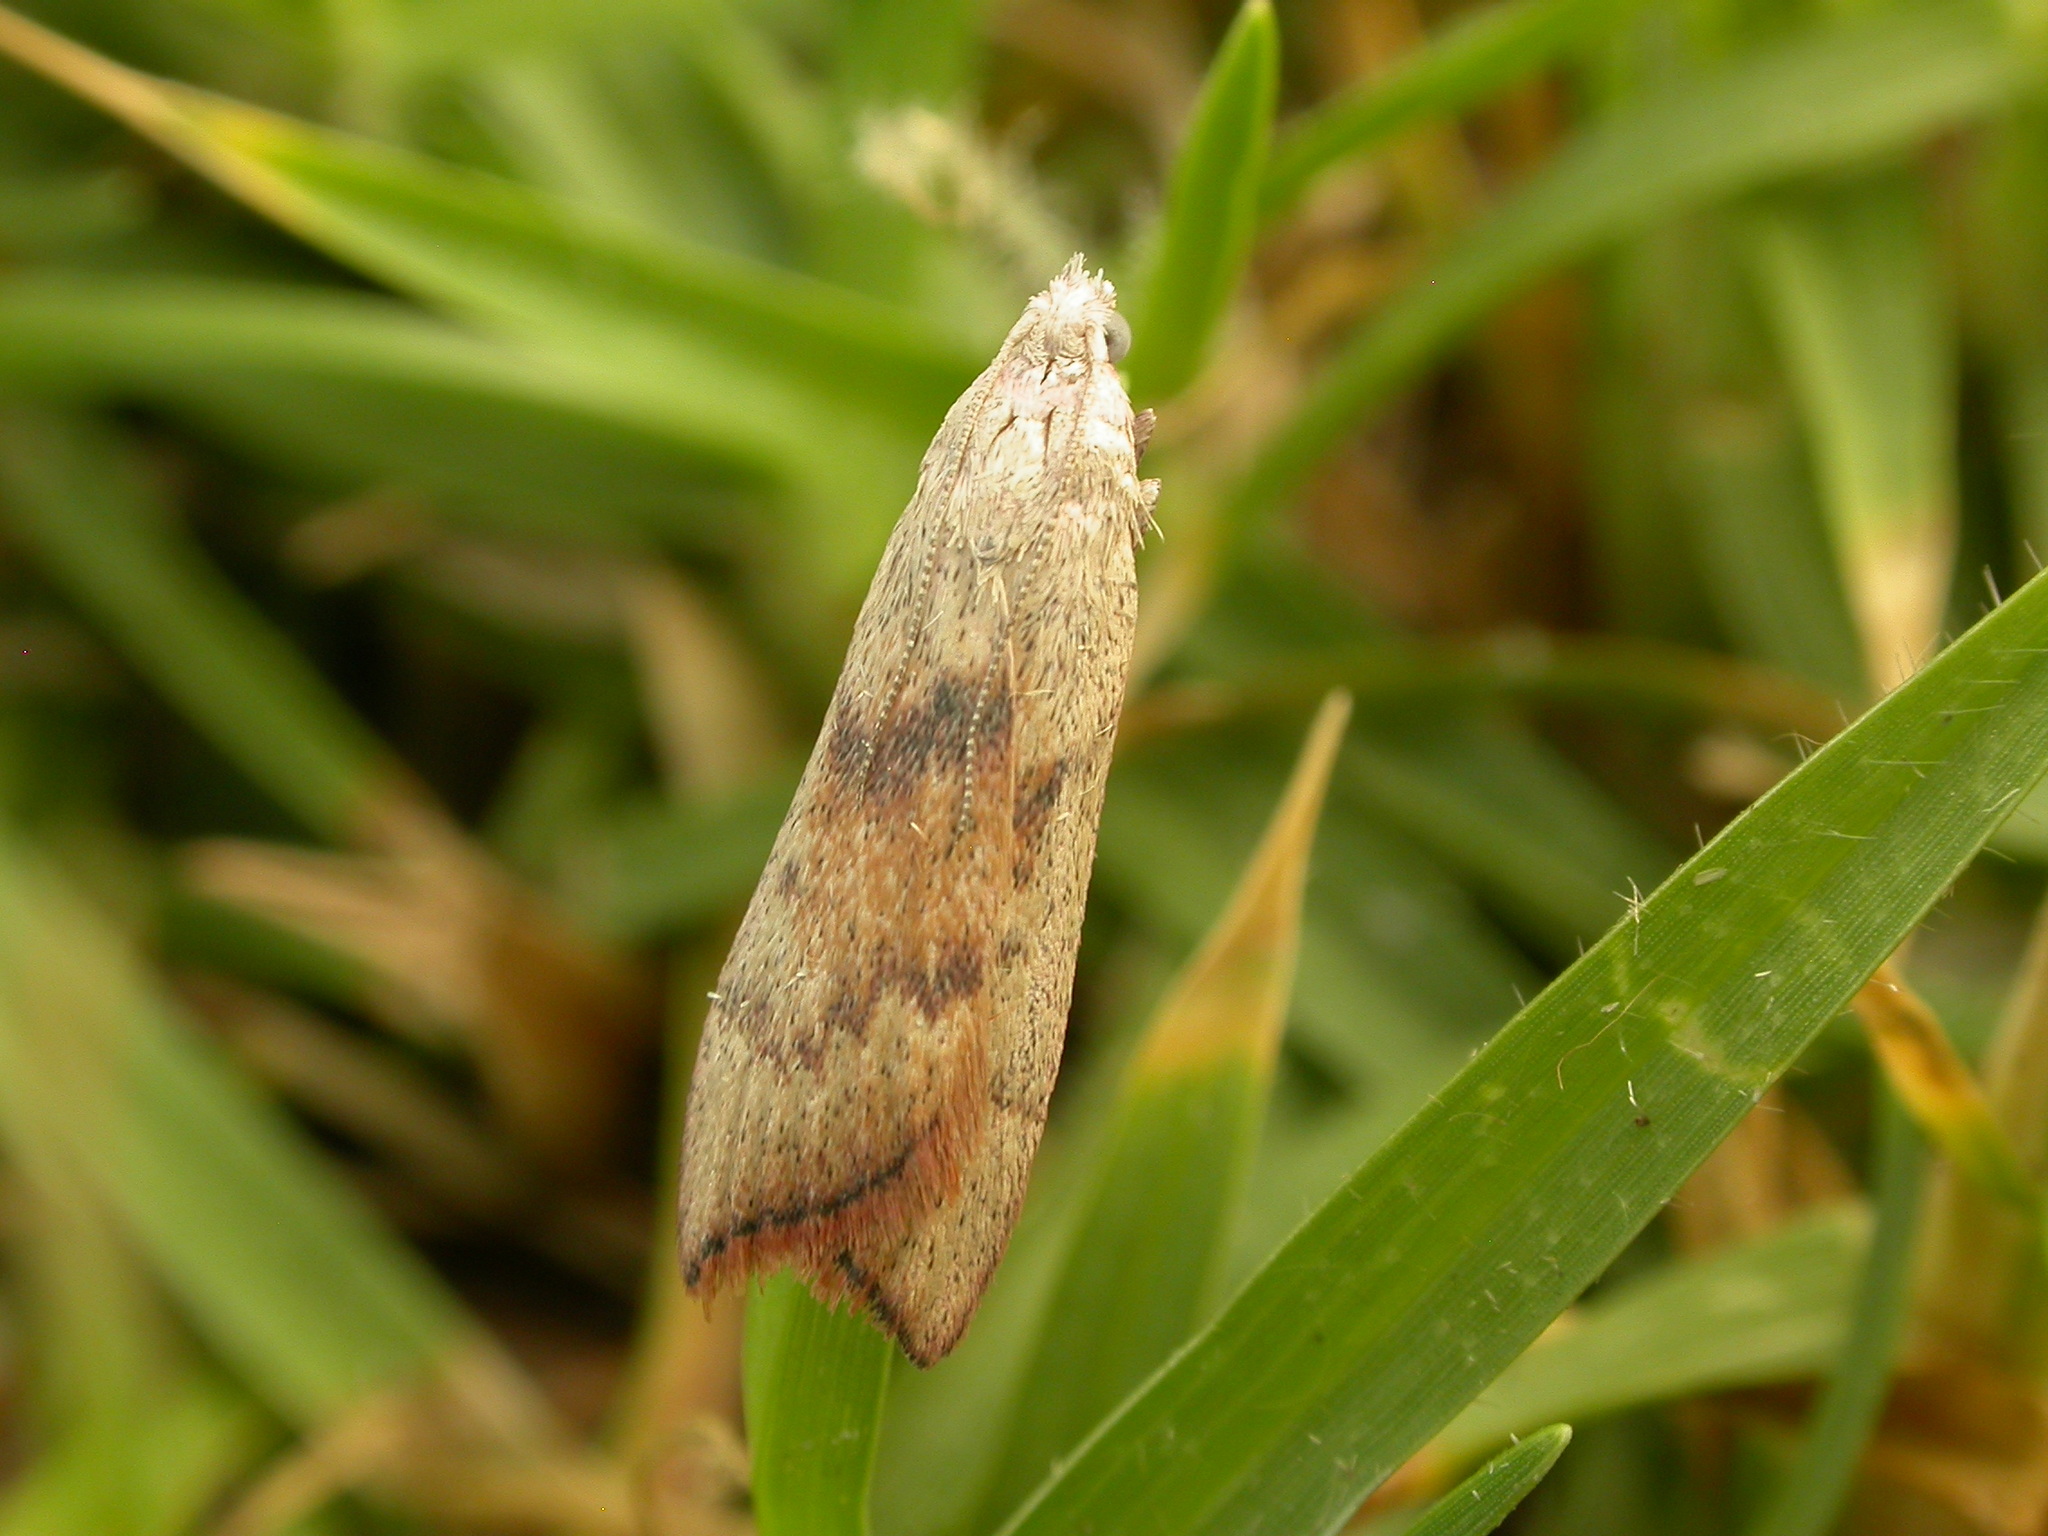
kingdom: Animalia
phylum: Arthropoda
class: Insecta
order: Lepidoptera
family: Pyralidae
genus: Callionyma
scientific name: Callionyma sarcodes
